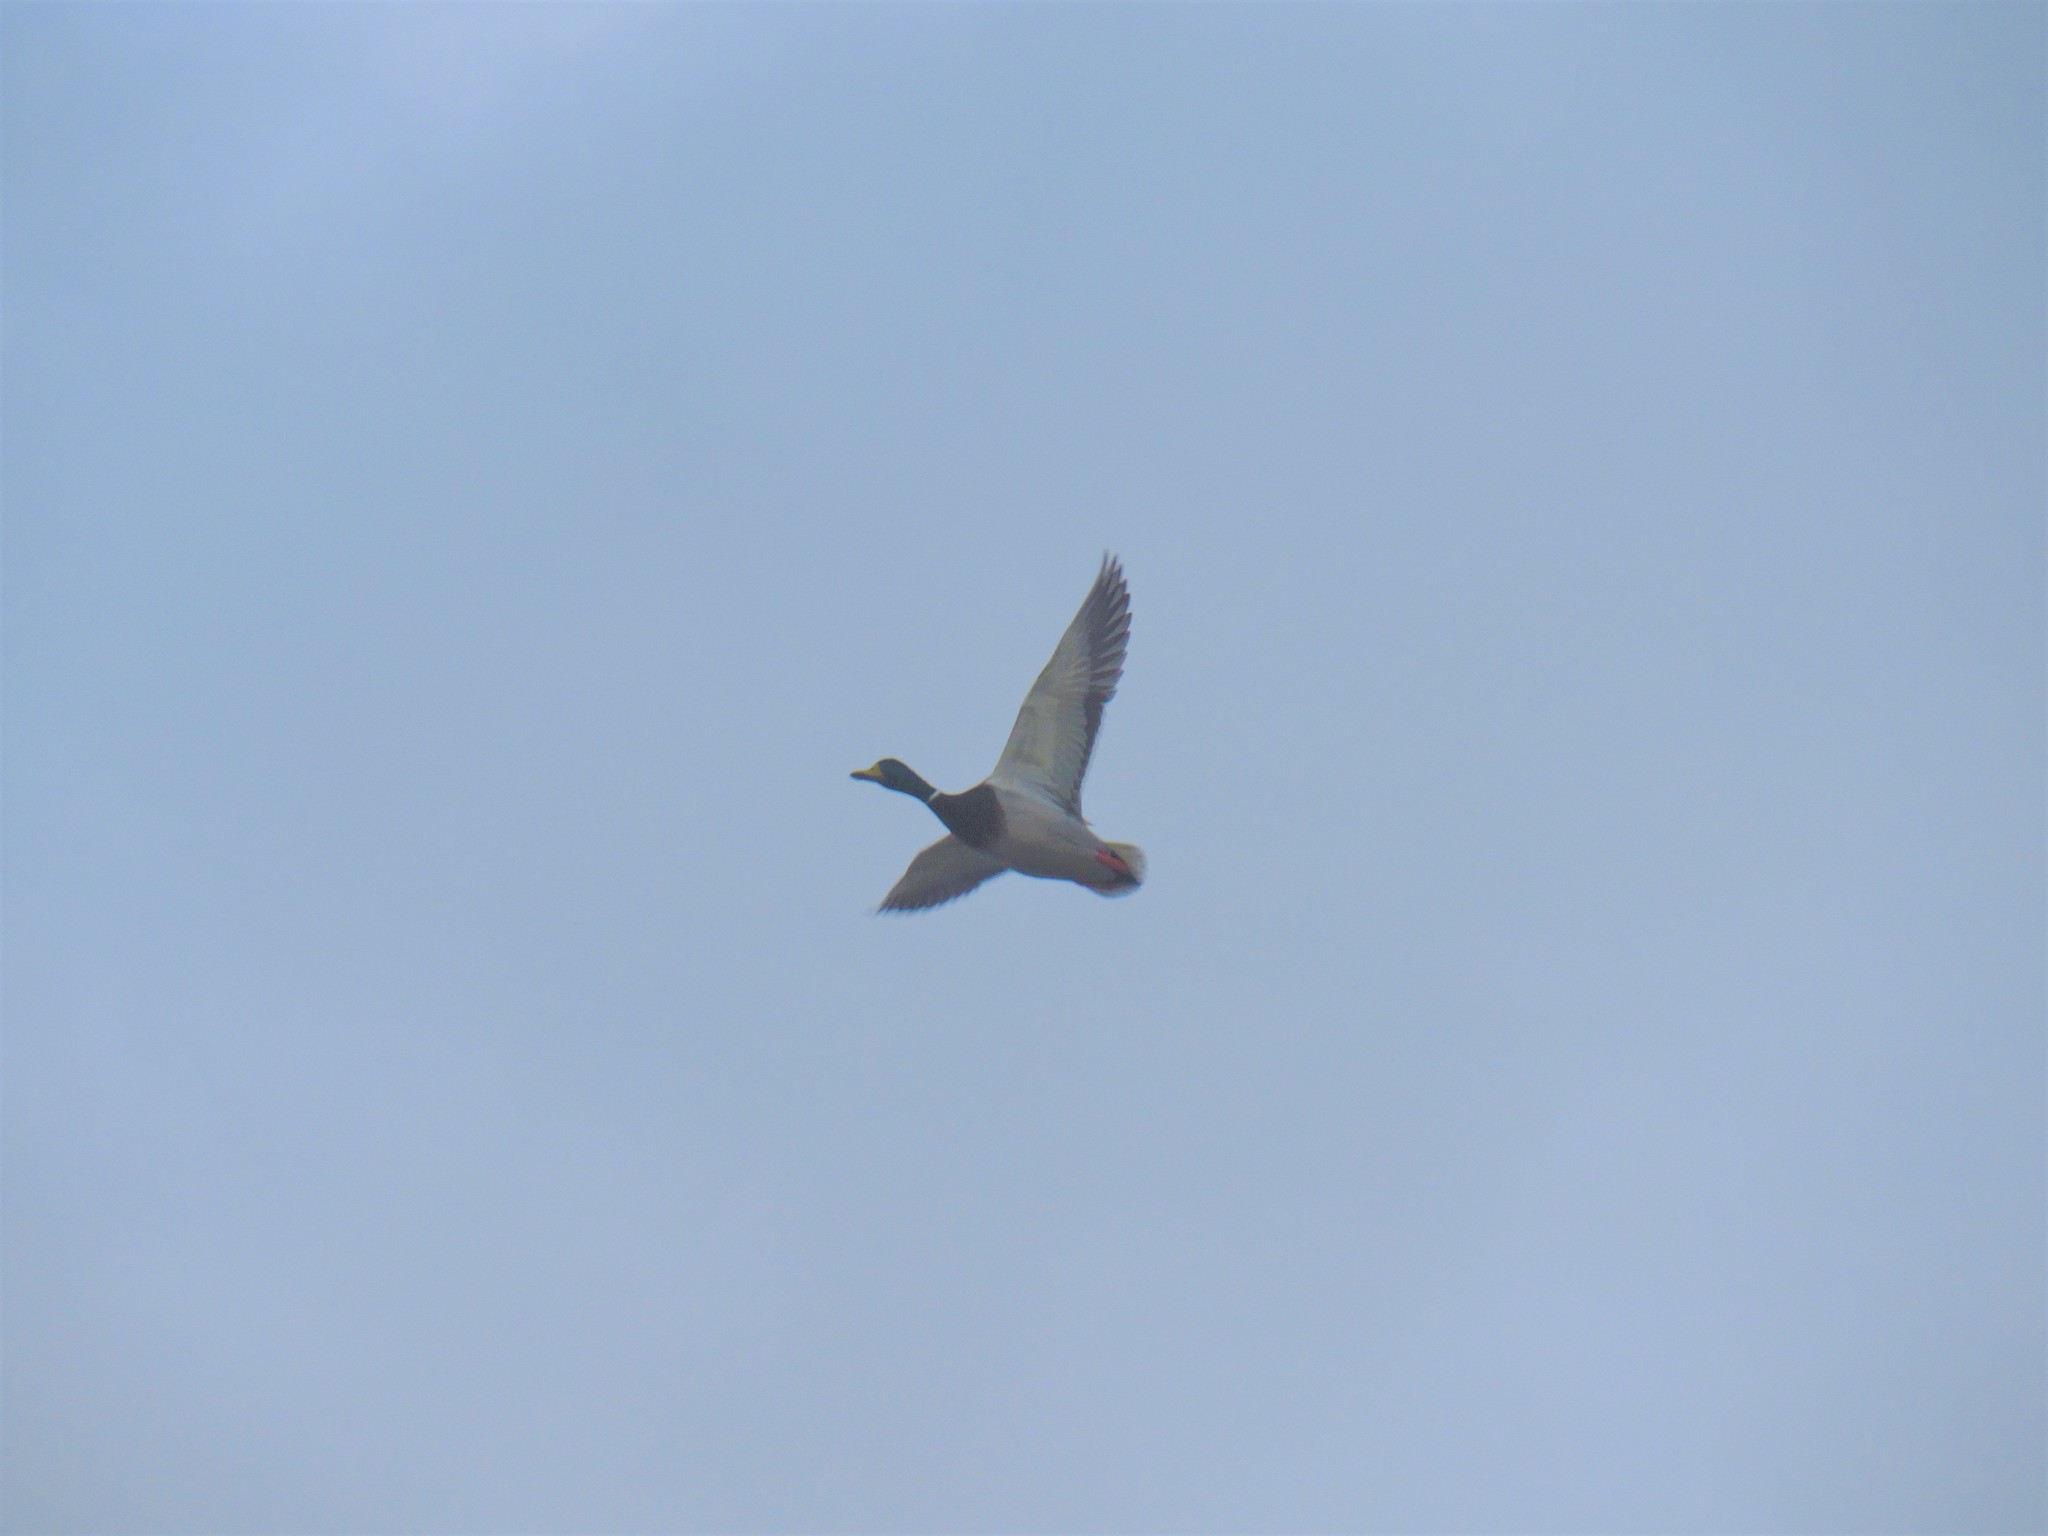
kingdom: Animalia
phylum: Chordata
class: Aves
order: Anseriformes
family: Anatidae
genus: Anas
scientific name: Anas platyrhynchos
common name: Mallard
